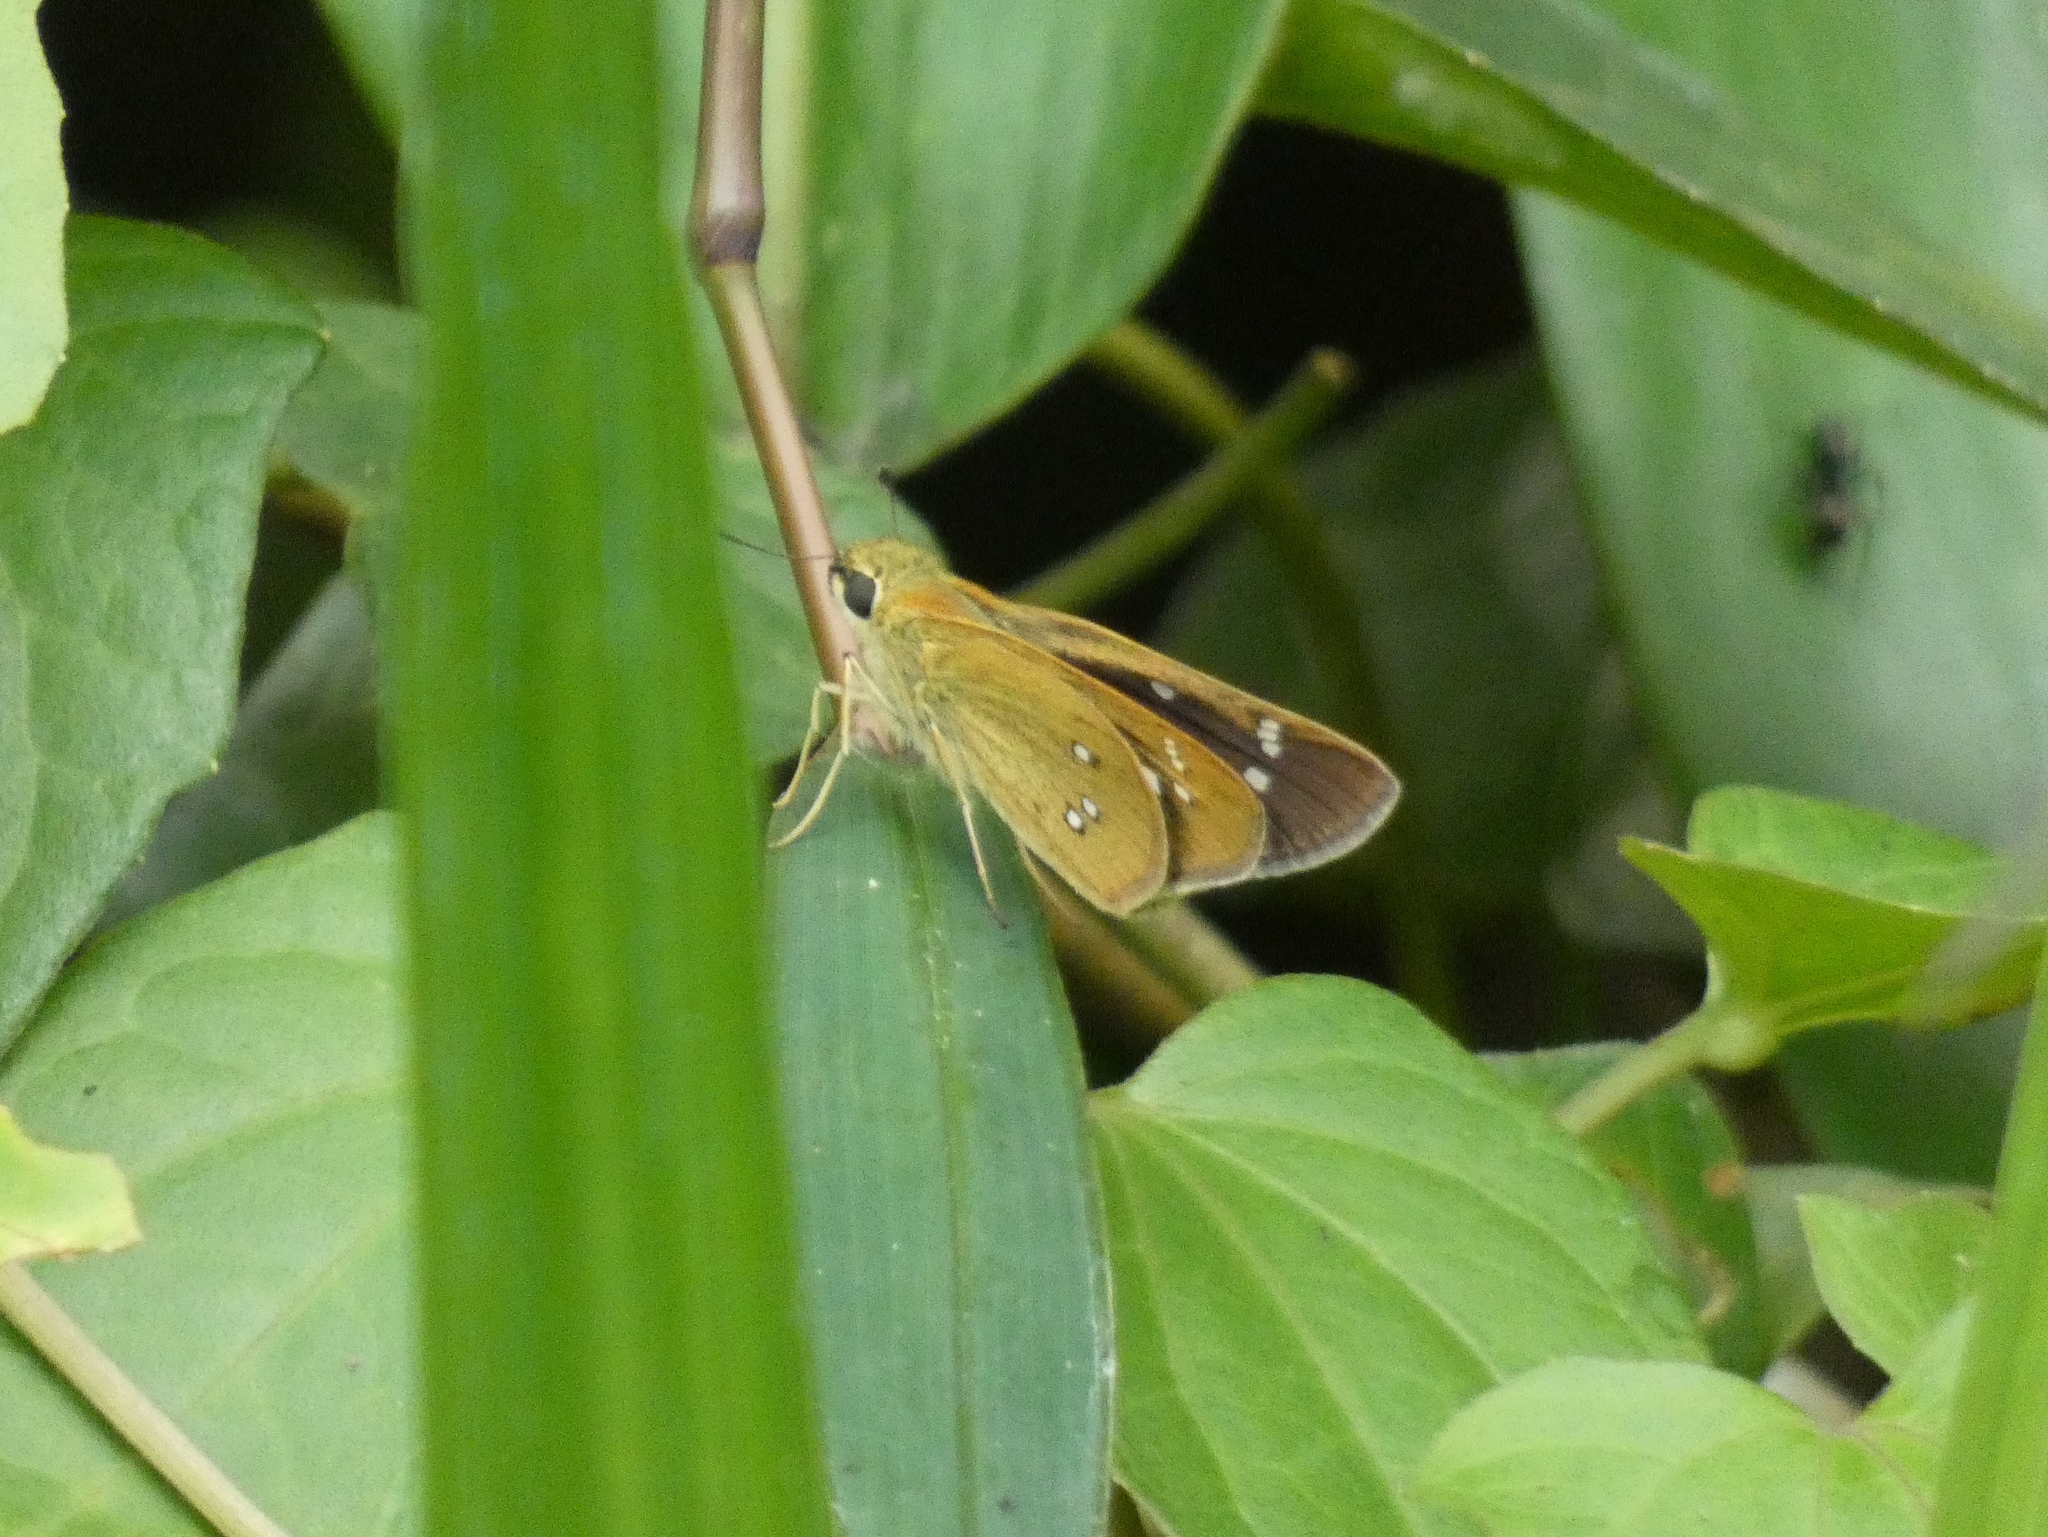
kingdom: Animalia
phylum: Arthropoda
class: Insecta
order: Lepidoptera
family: Hesperiidae
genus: Borbo
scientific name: Borbo borbonica
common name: Olive-haired swift
